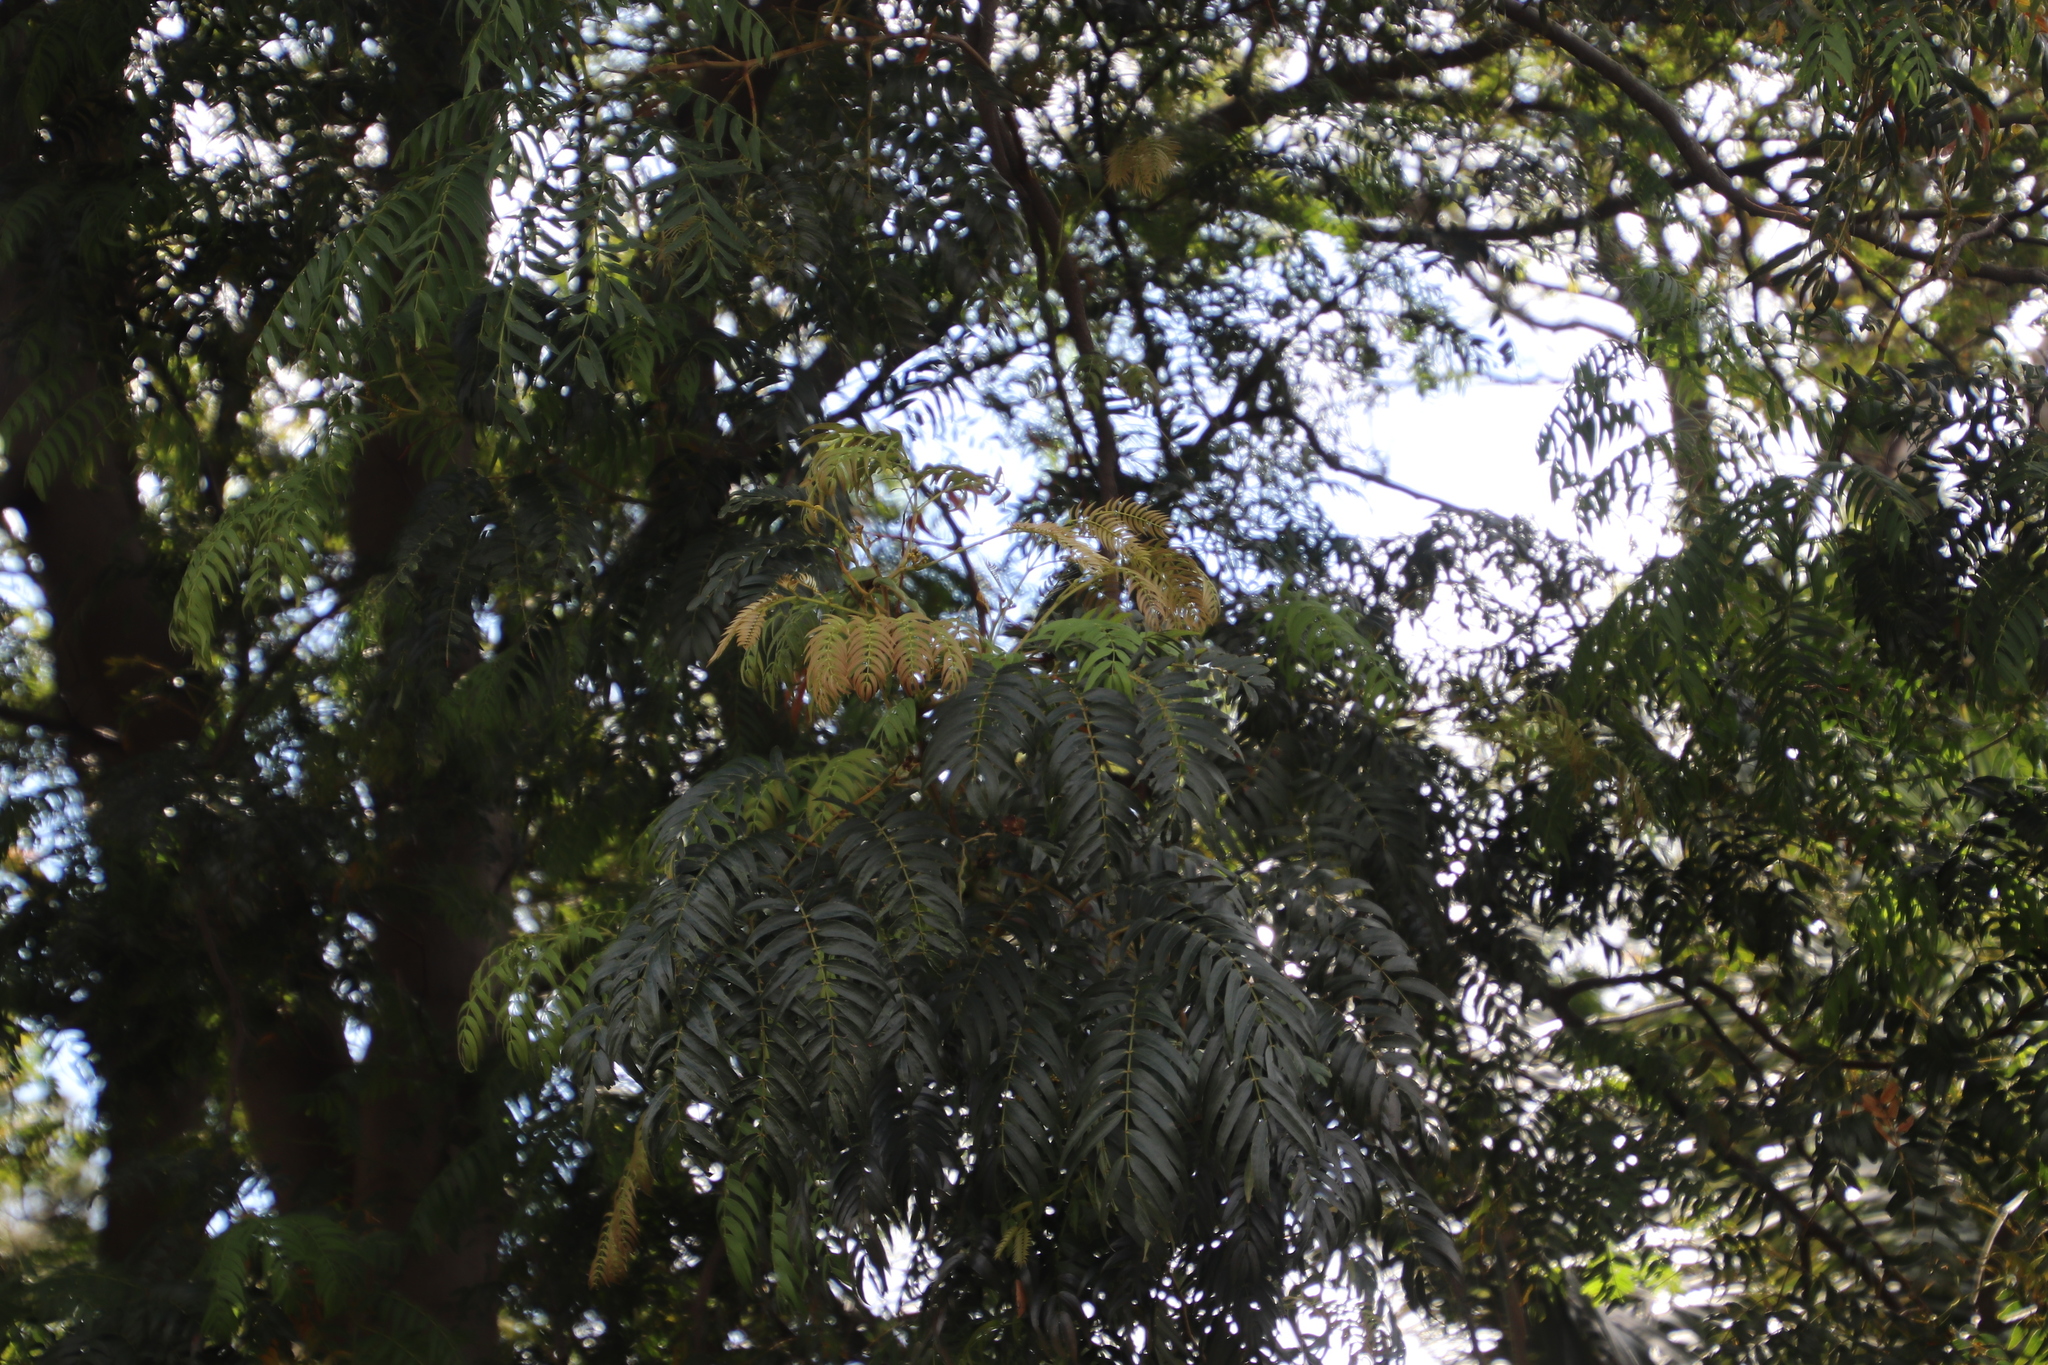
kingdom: Plantae
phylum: Tracheophyta
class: Magnoliopsida
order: Fabales
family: Fabaceae
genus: Acacia
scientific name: Acacia elata
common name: Cedar wattle
